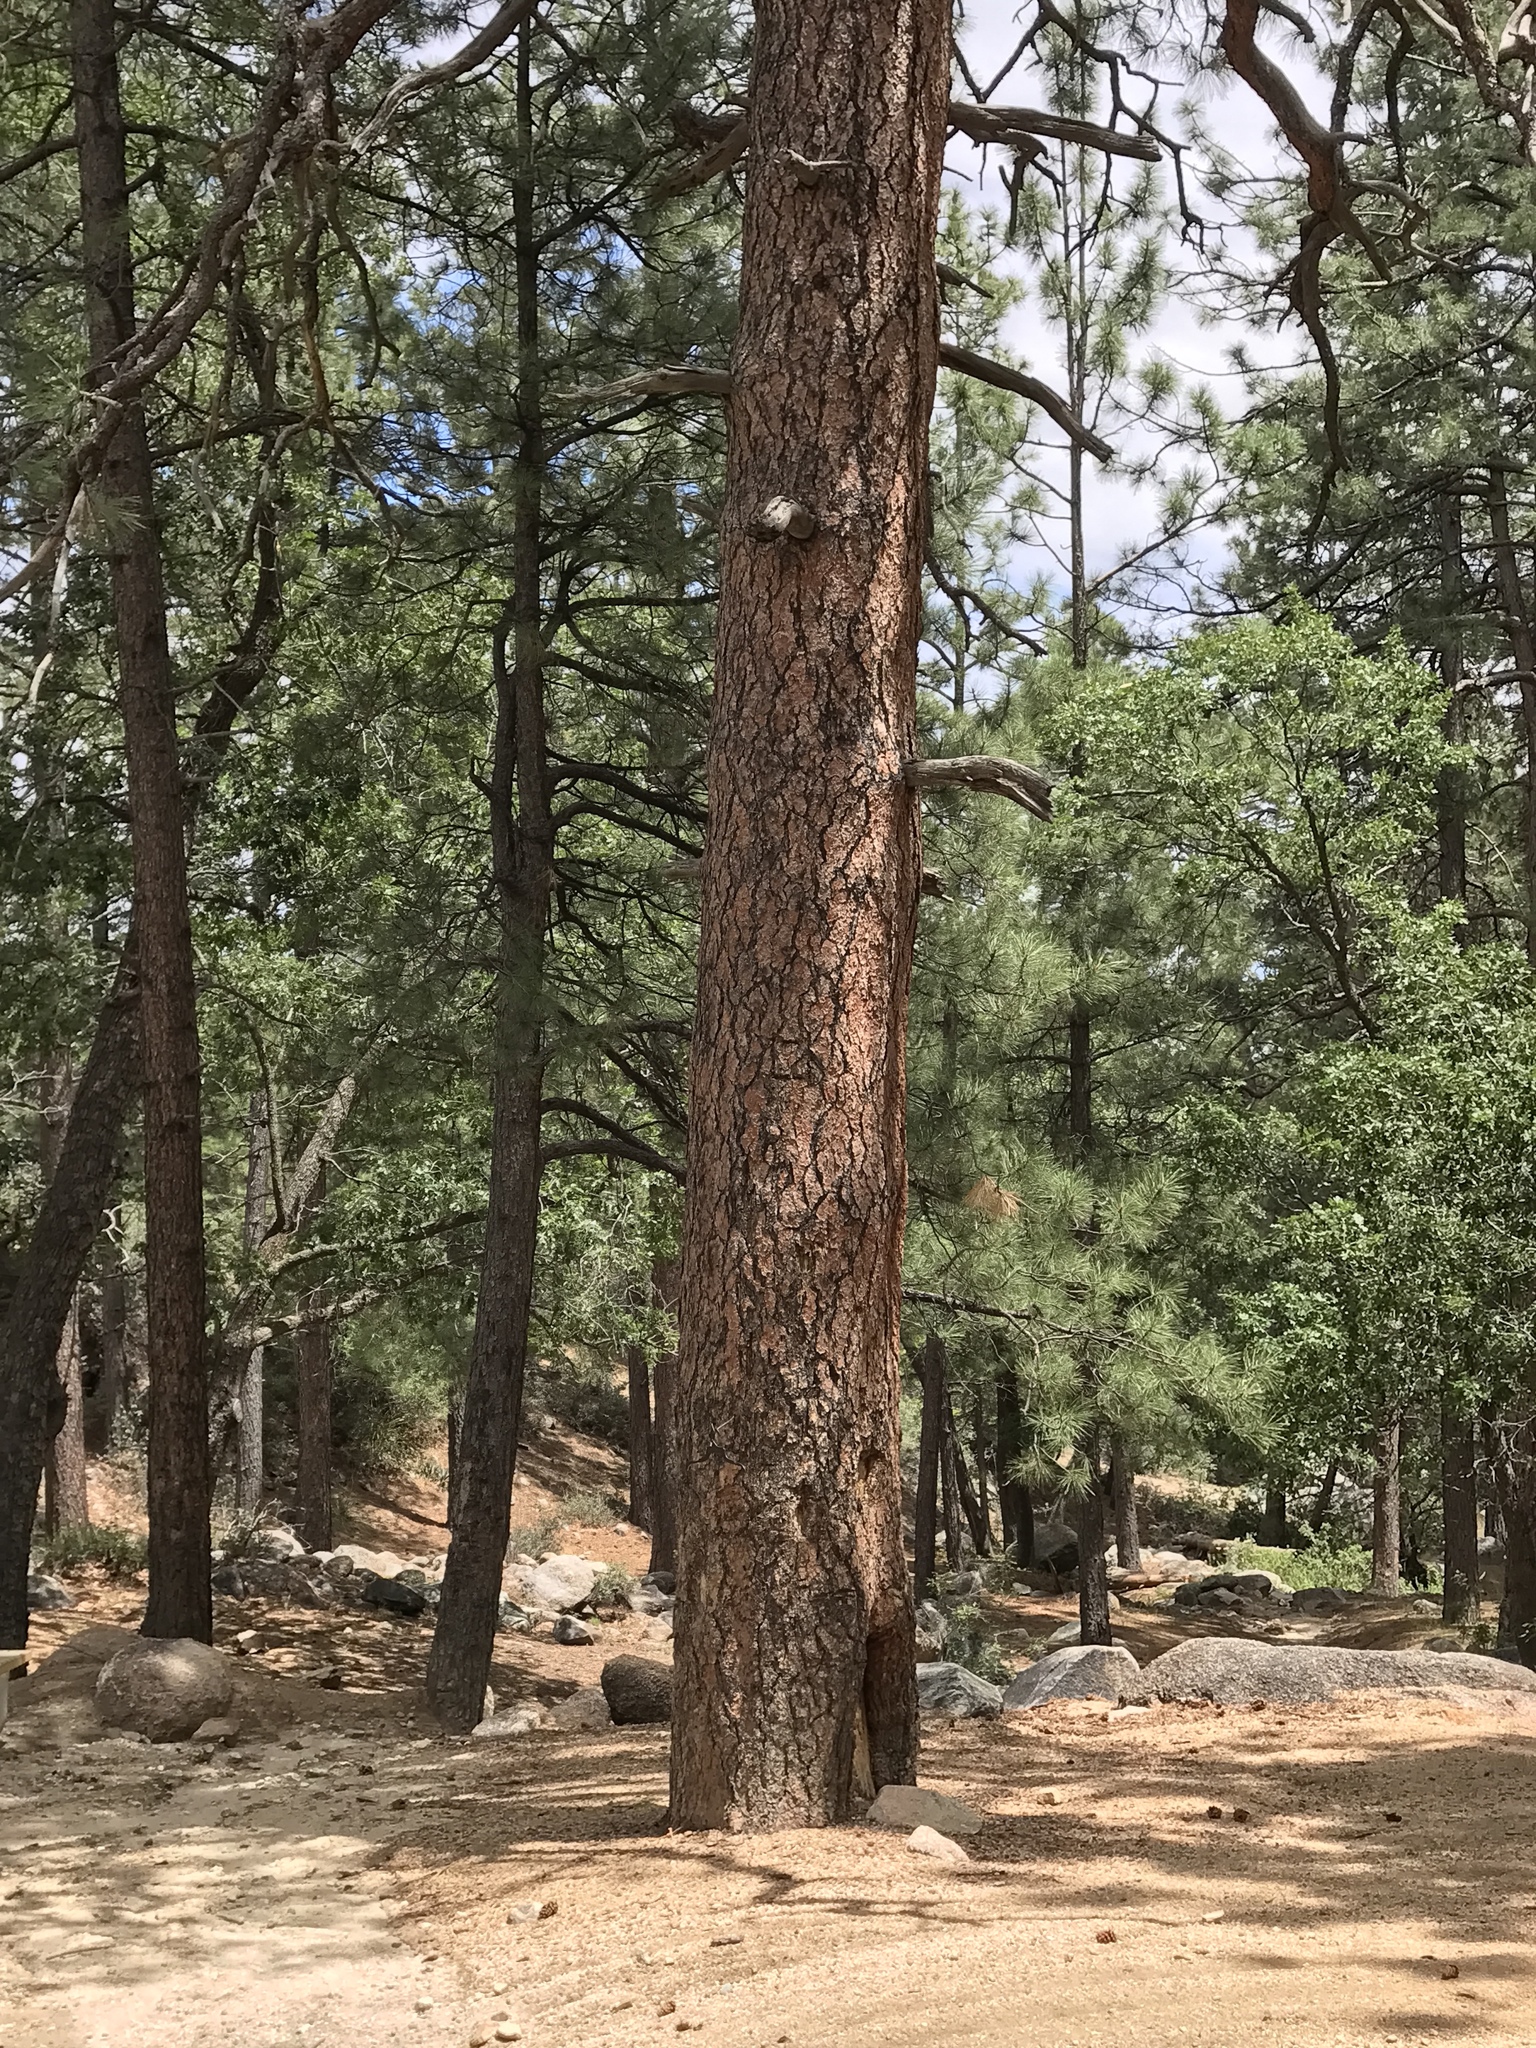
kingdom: Plantae
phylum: Tracheophyta
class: Pinopsida
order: Pinales
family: Pinaceae
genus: Pinus
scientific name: Pinus ponderosa
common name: Western yellow-pine
